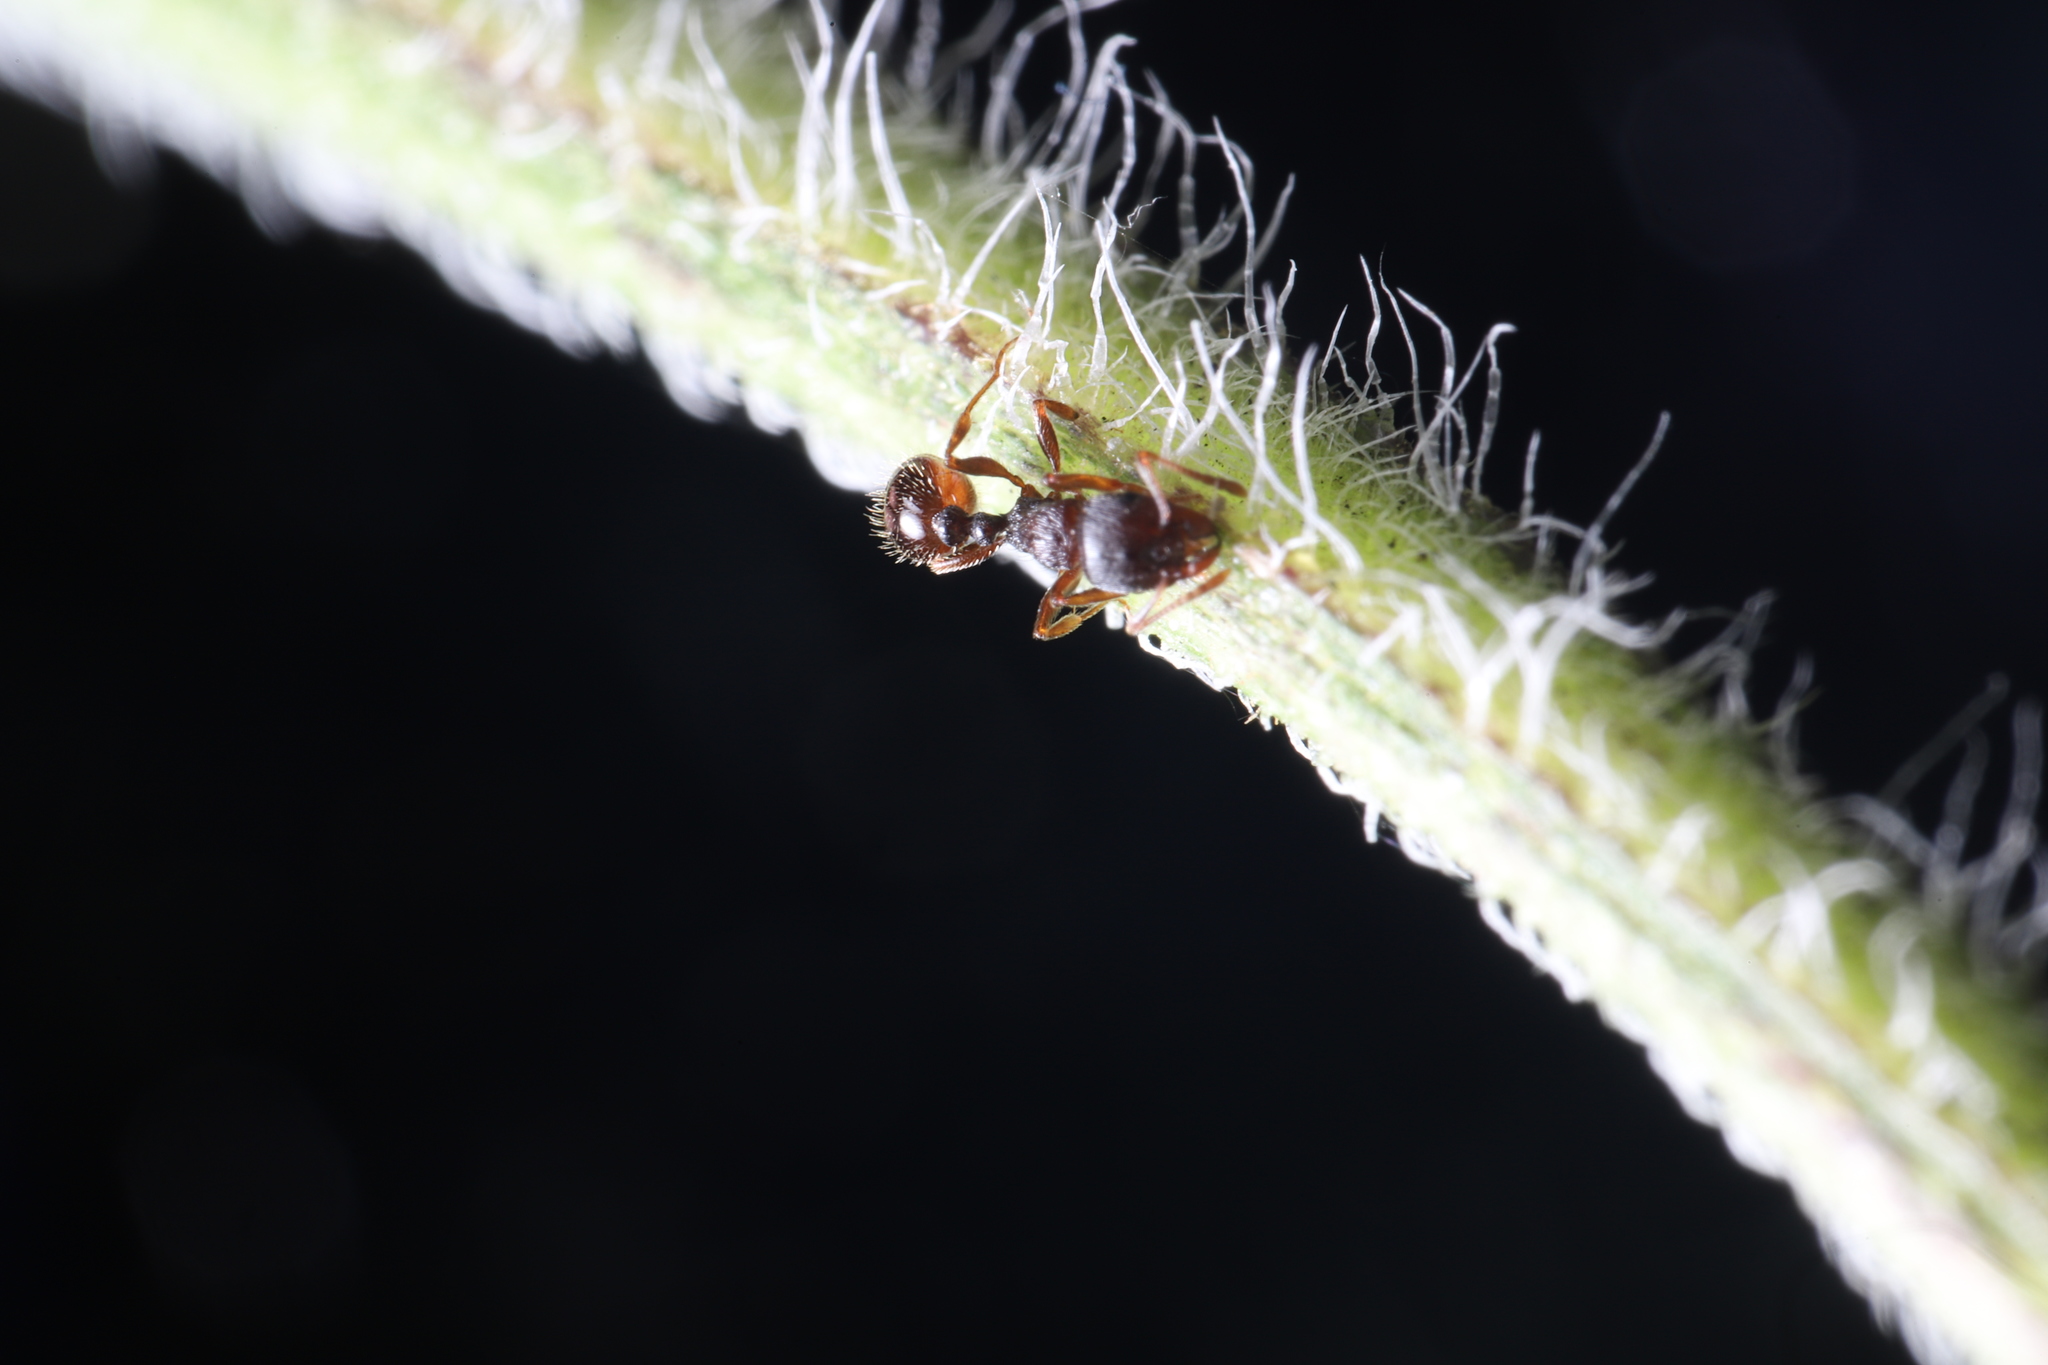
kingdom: Animalia
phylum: Arthropoda
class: Insecta
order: Hymenoptera
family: Formicidae
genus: Tetramorium
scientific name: Tetramorium immigrans
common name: Pavement ant
